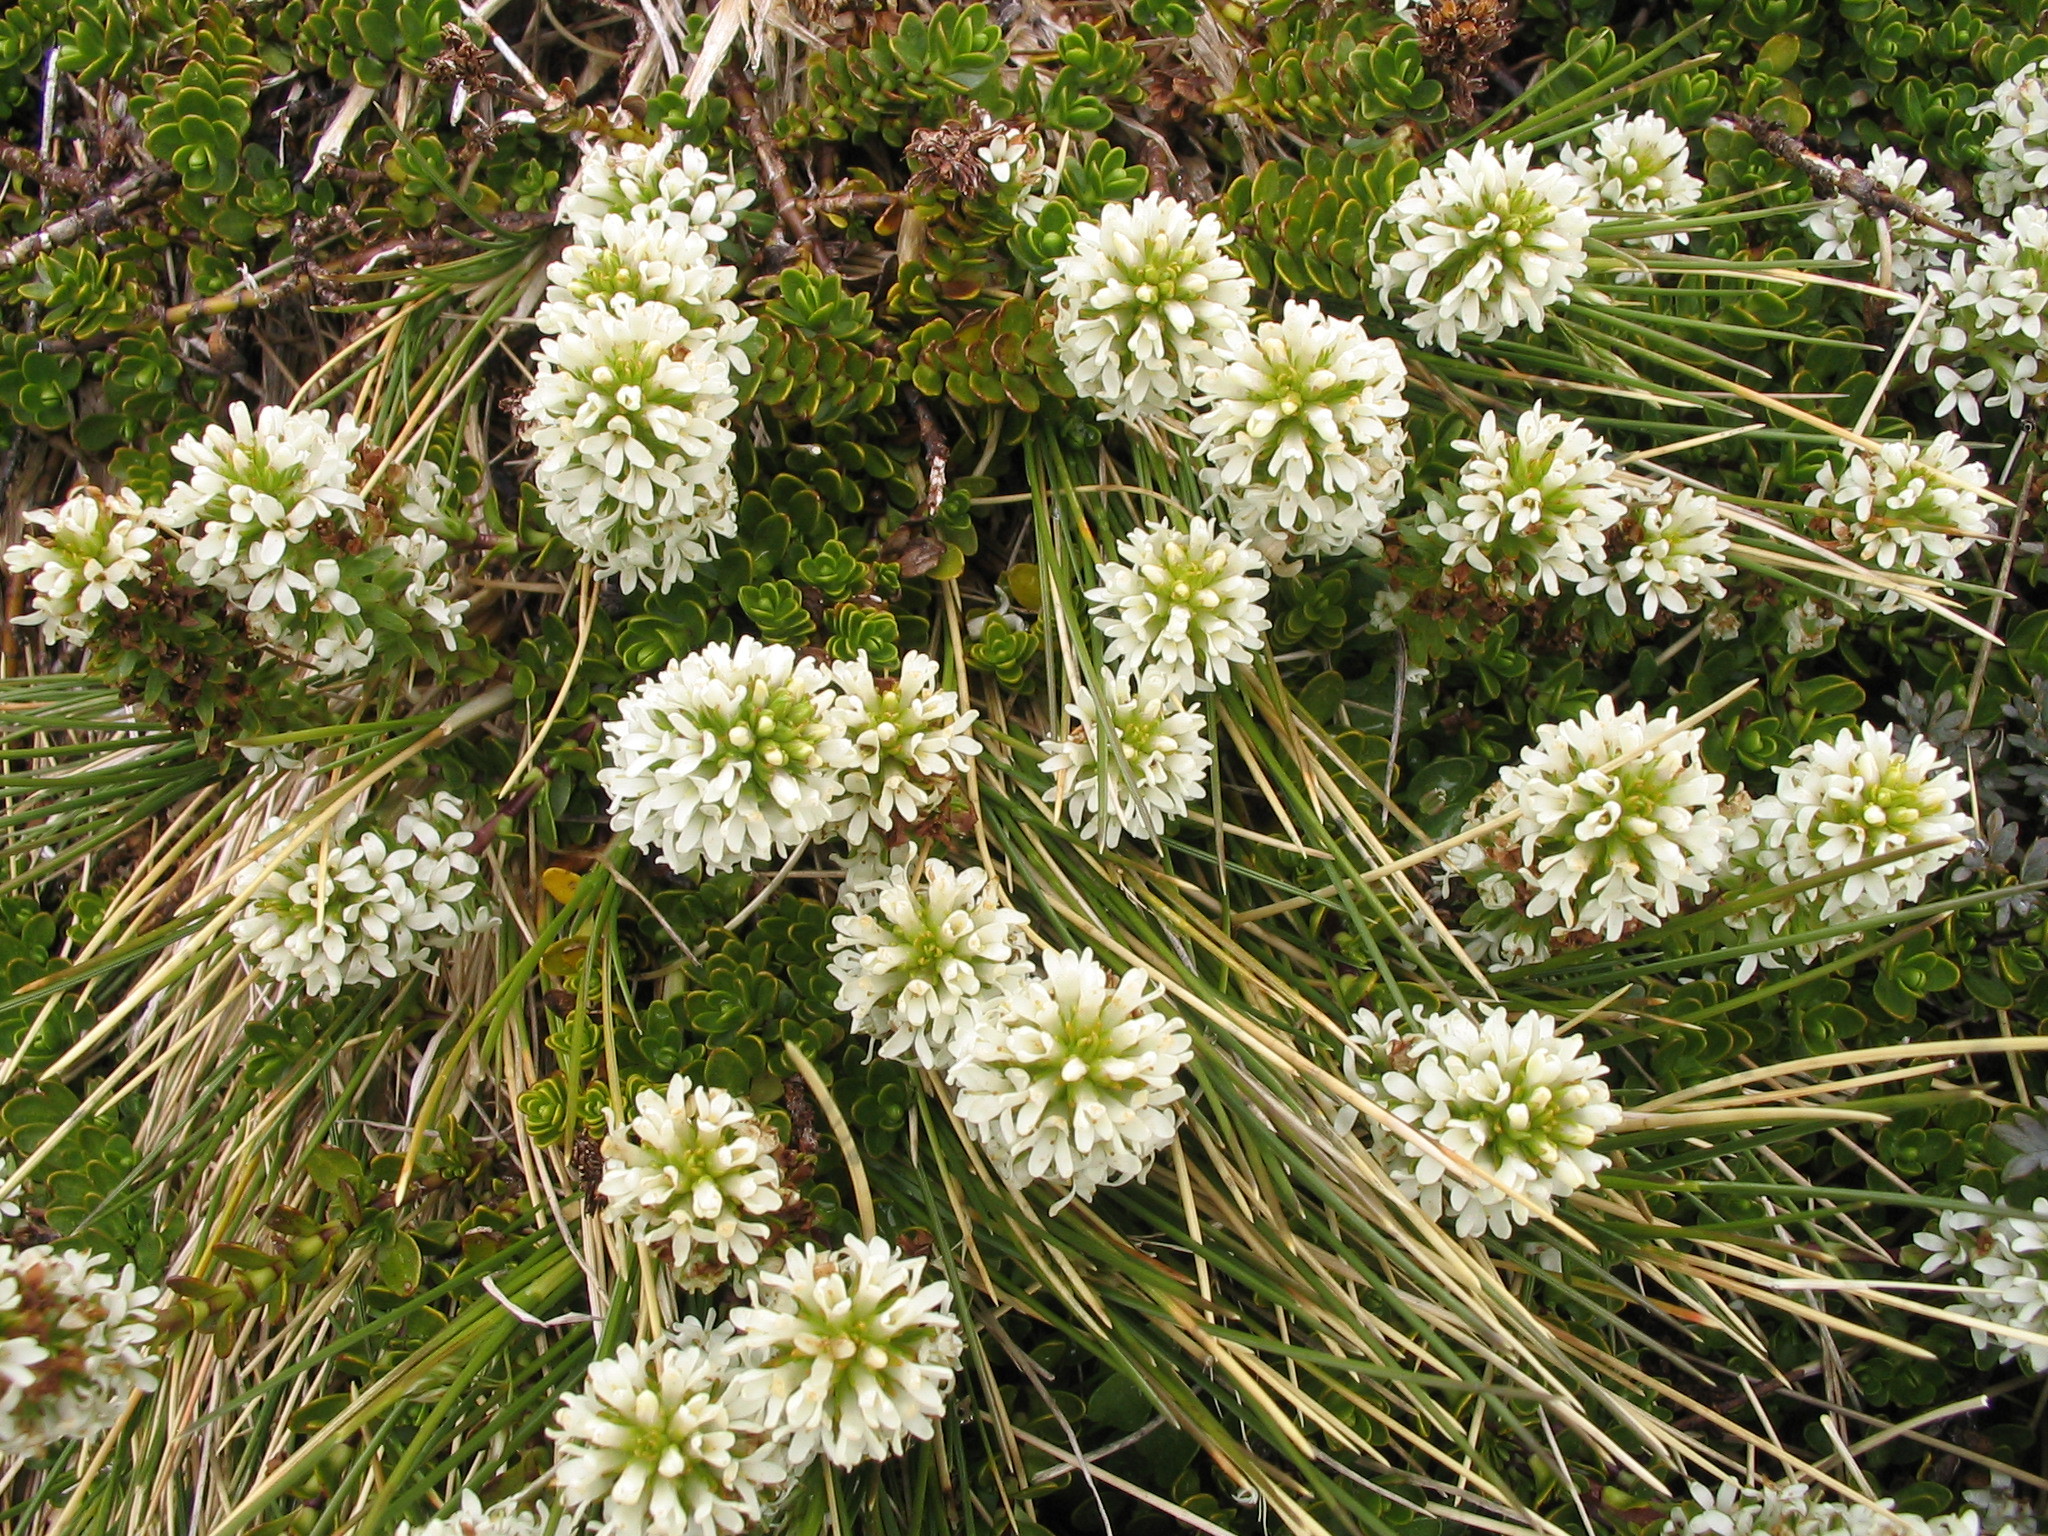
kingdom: Plantae
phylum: Tracheophyta
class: Magnoliopsida
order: Lamiales
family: Plantaginaceae
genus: Veronica
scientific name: Veronica petriei
